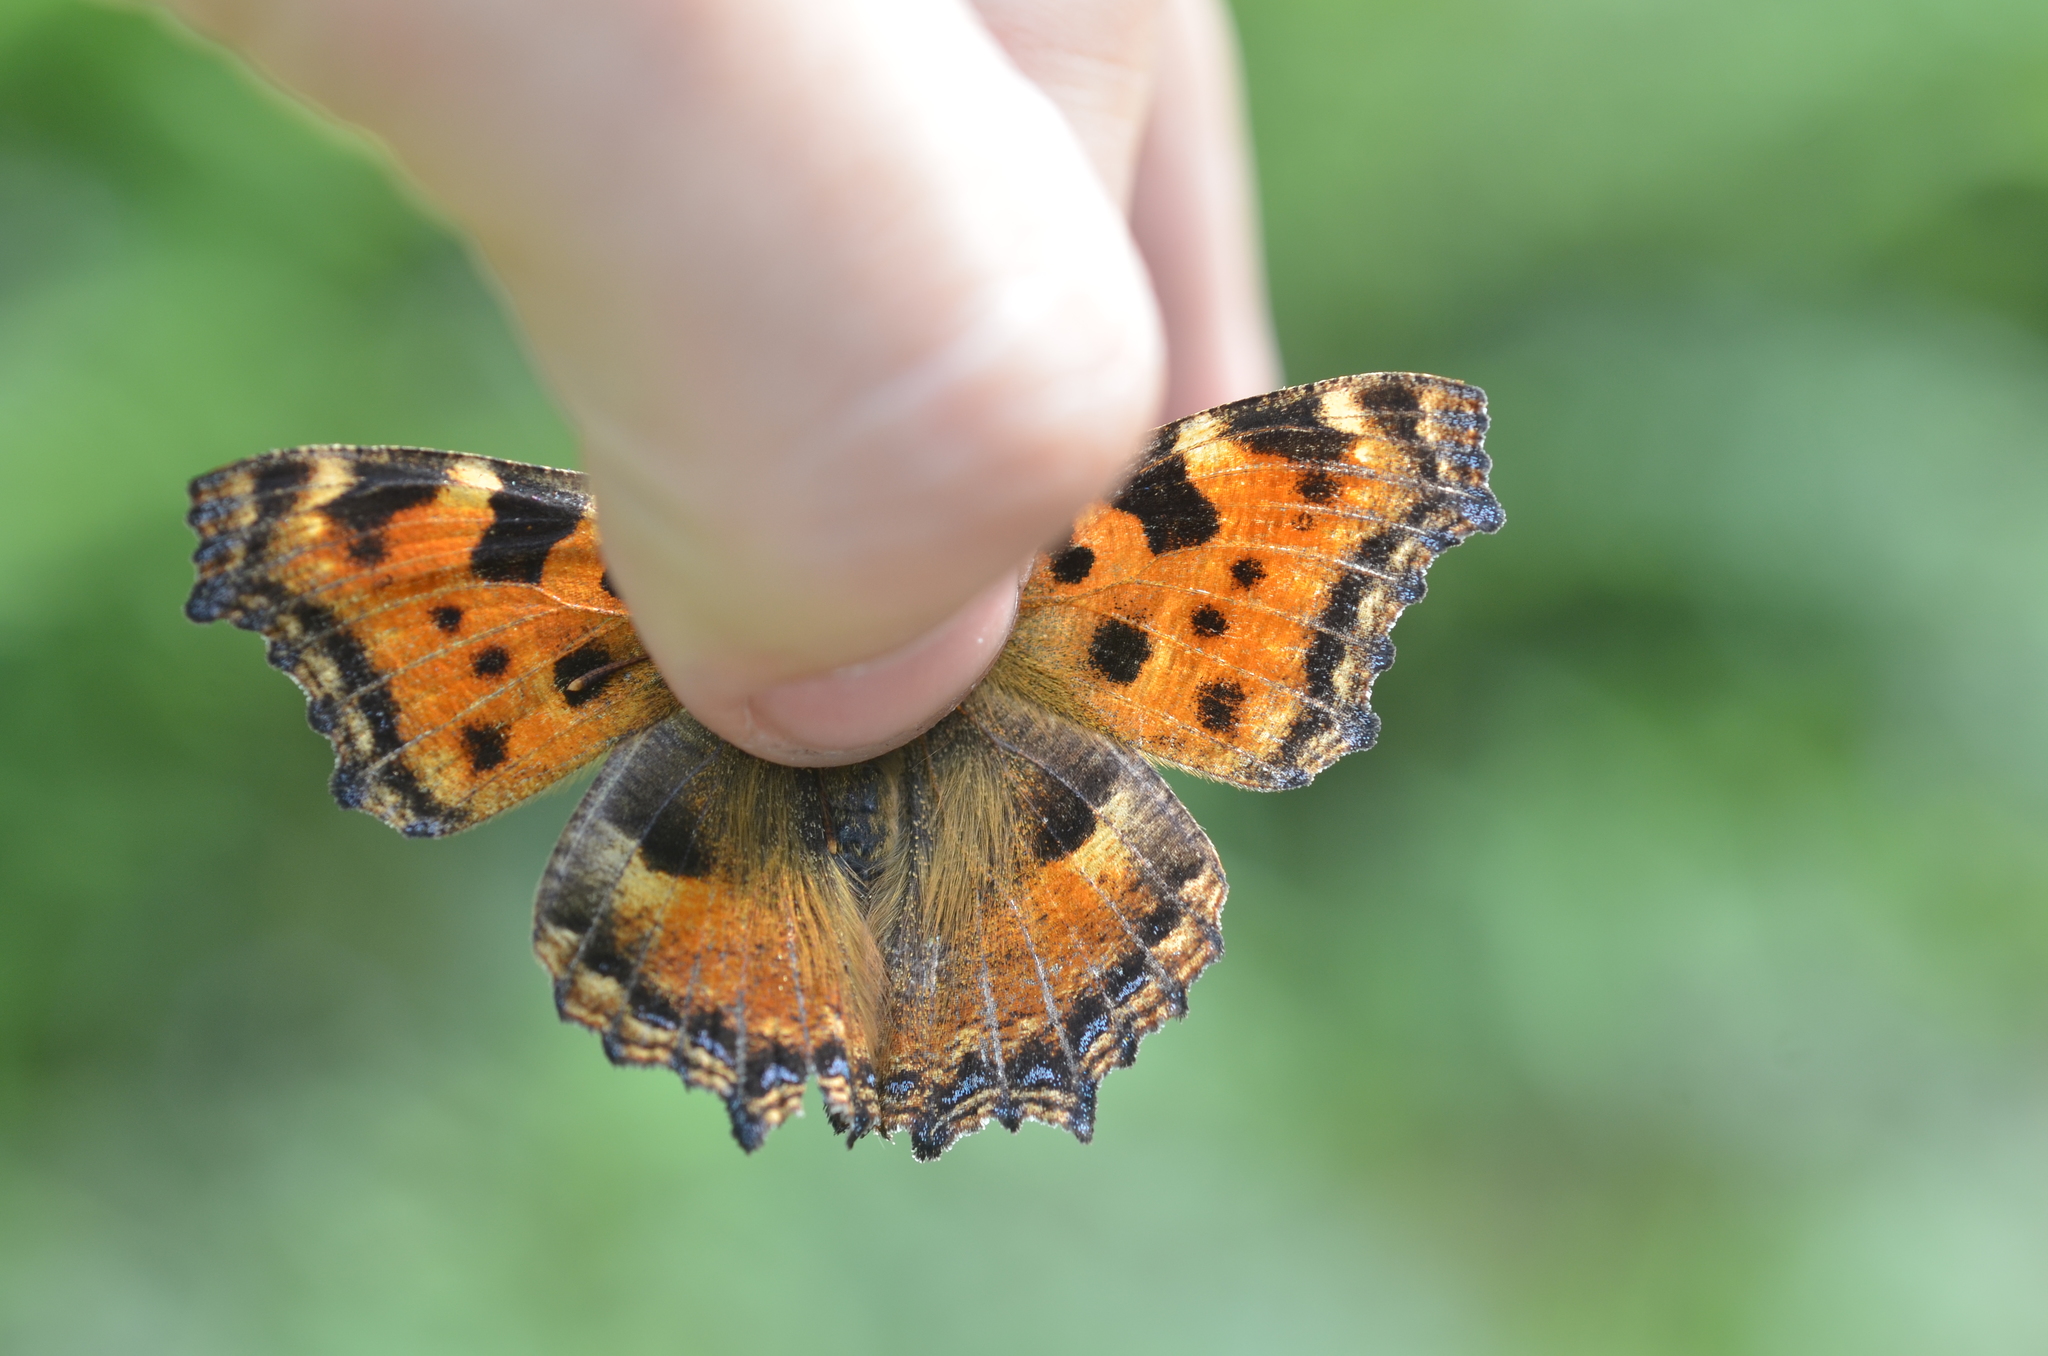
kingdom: Animalia
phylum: Arthropoda
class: Insecta
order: Lepidoptera
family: Nymphalidae
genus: Nymphalis
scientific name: Nymphalis polychloros
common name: Large tortoiseshell
